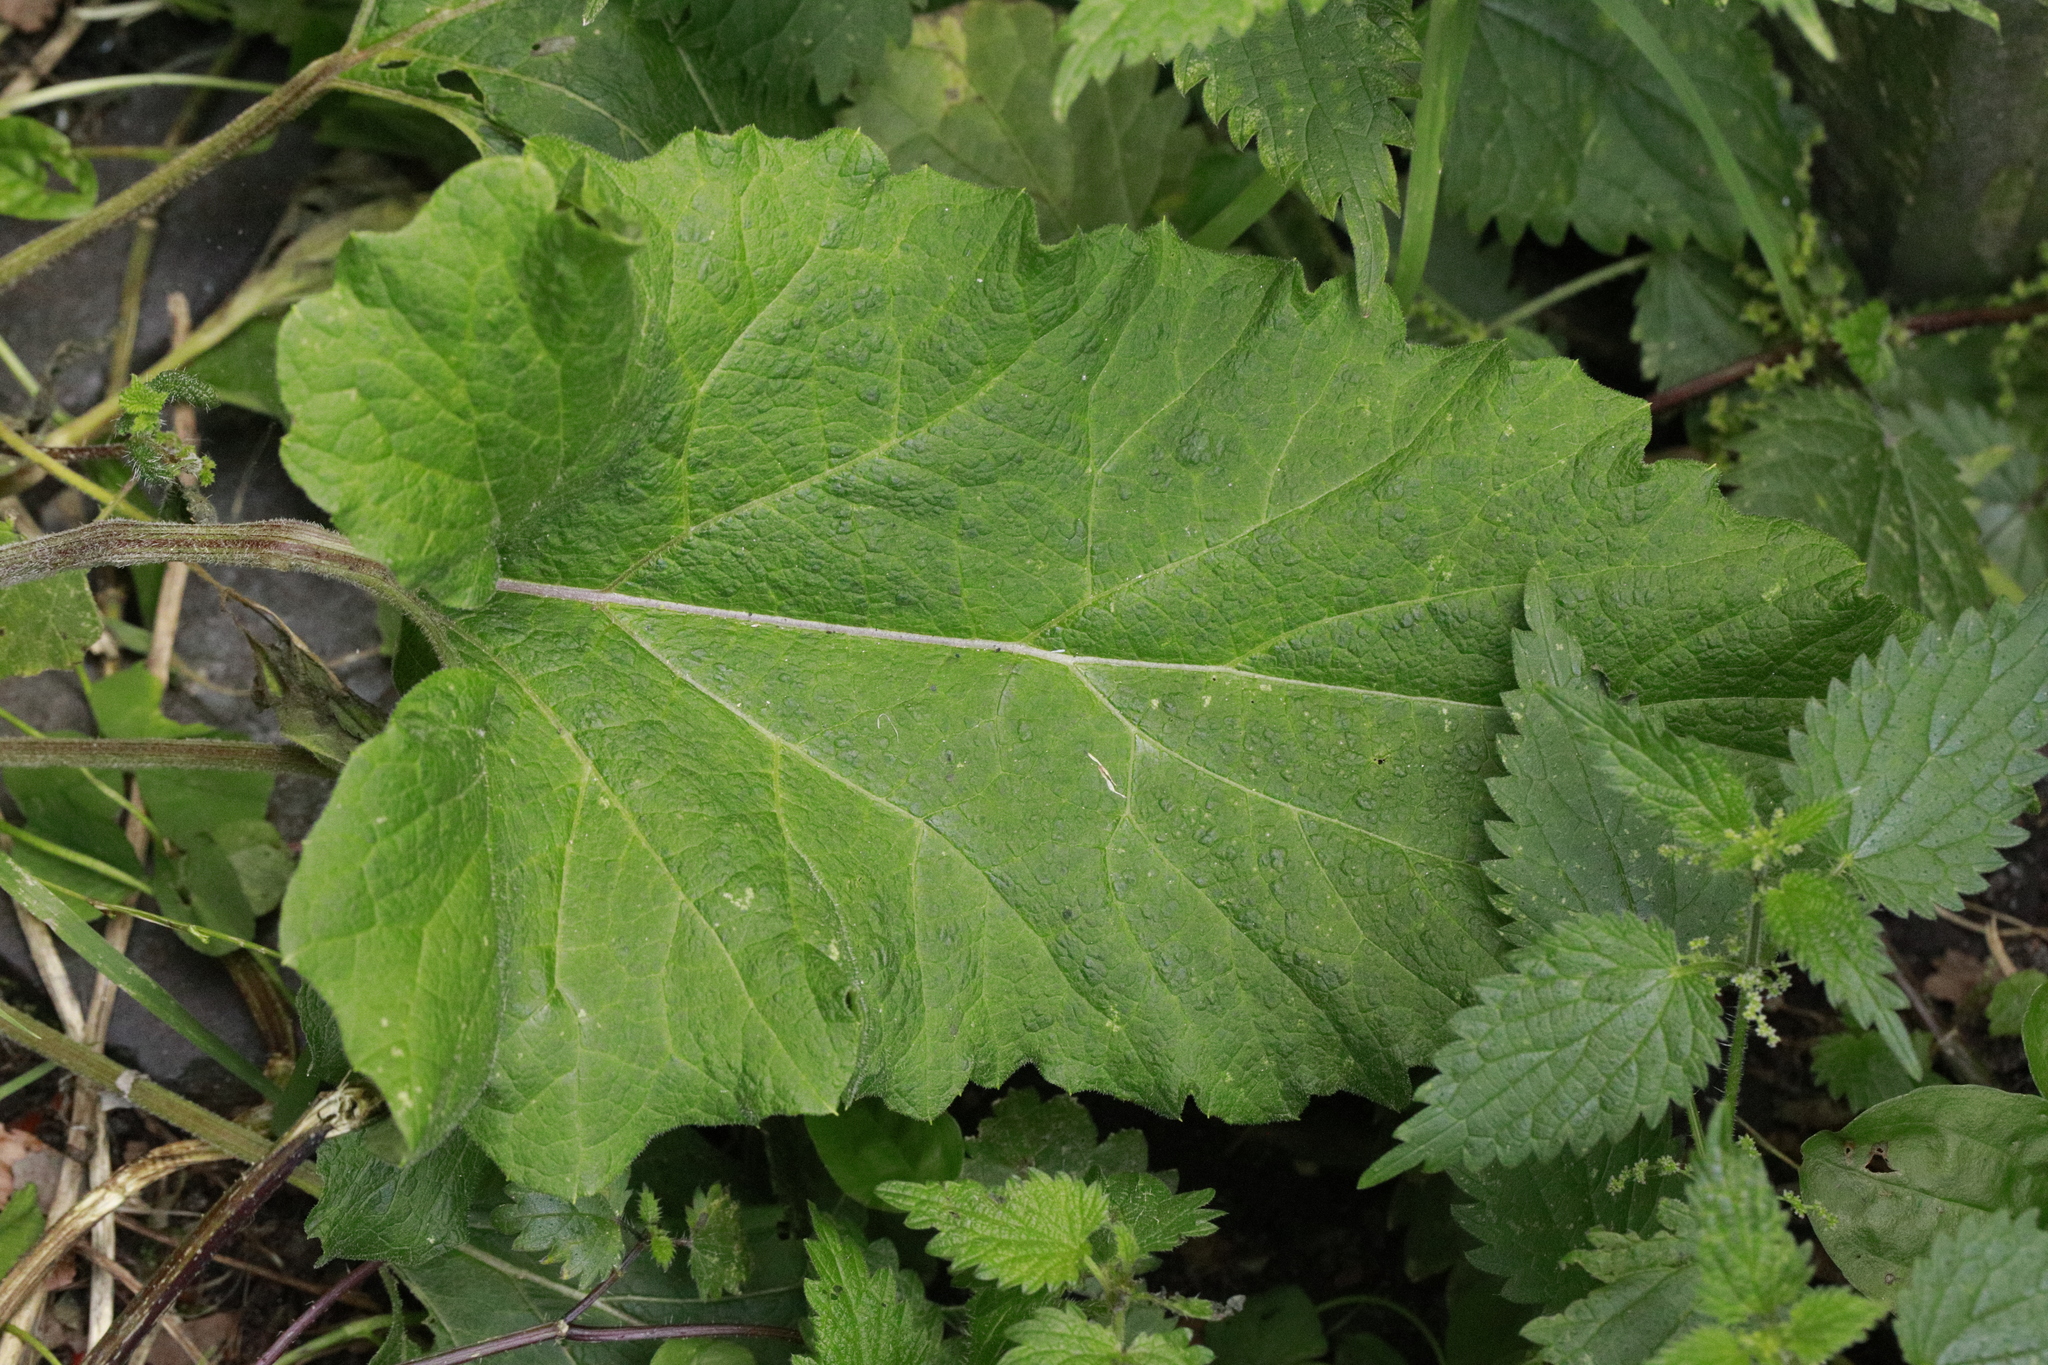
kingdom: Plantae
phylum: Tracheophyta
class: Magnoliopsida
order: Asterales
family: Asteraceae
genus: Arctium
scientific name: Arctium minus
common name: Lesser burdock
